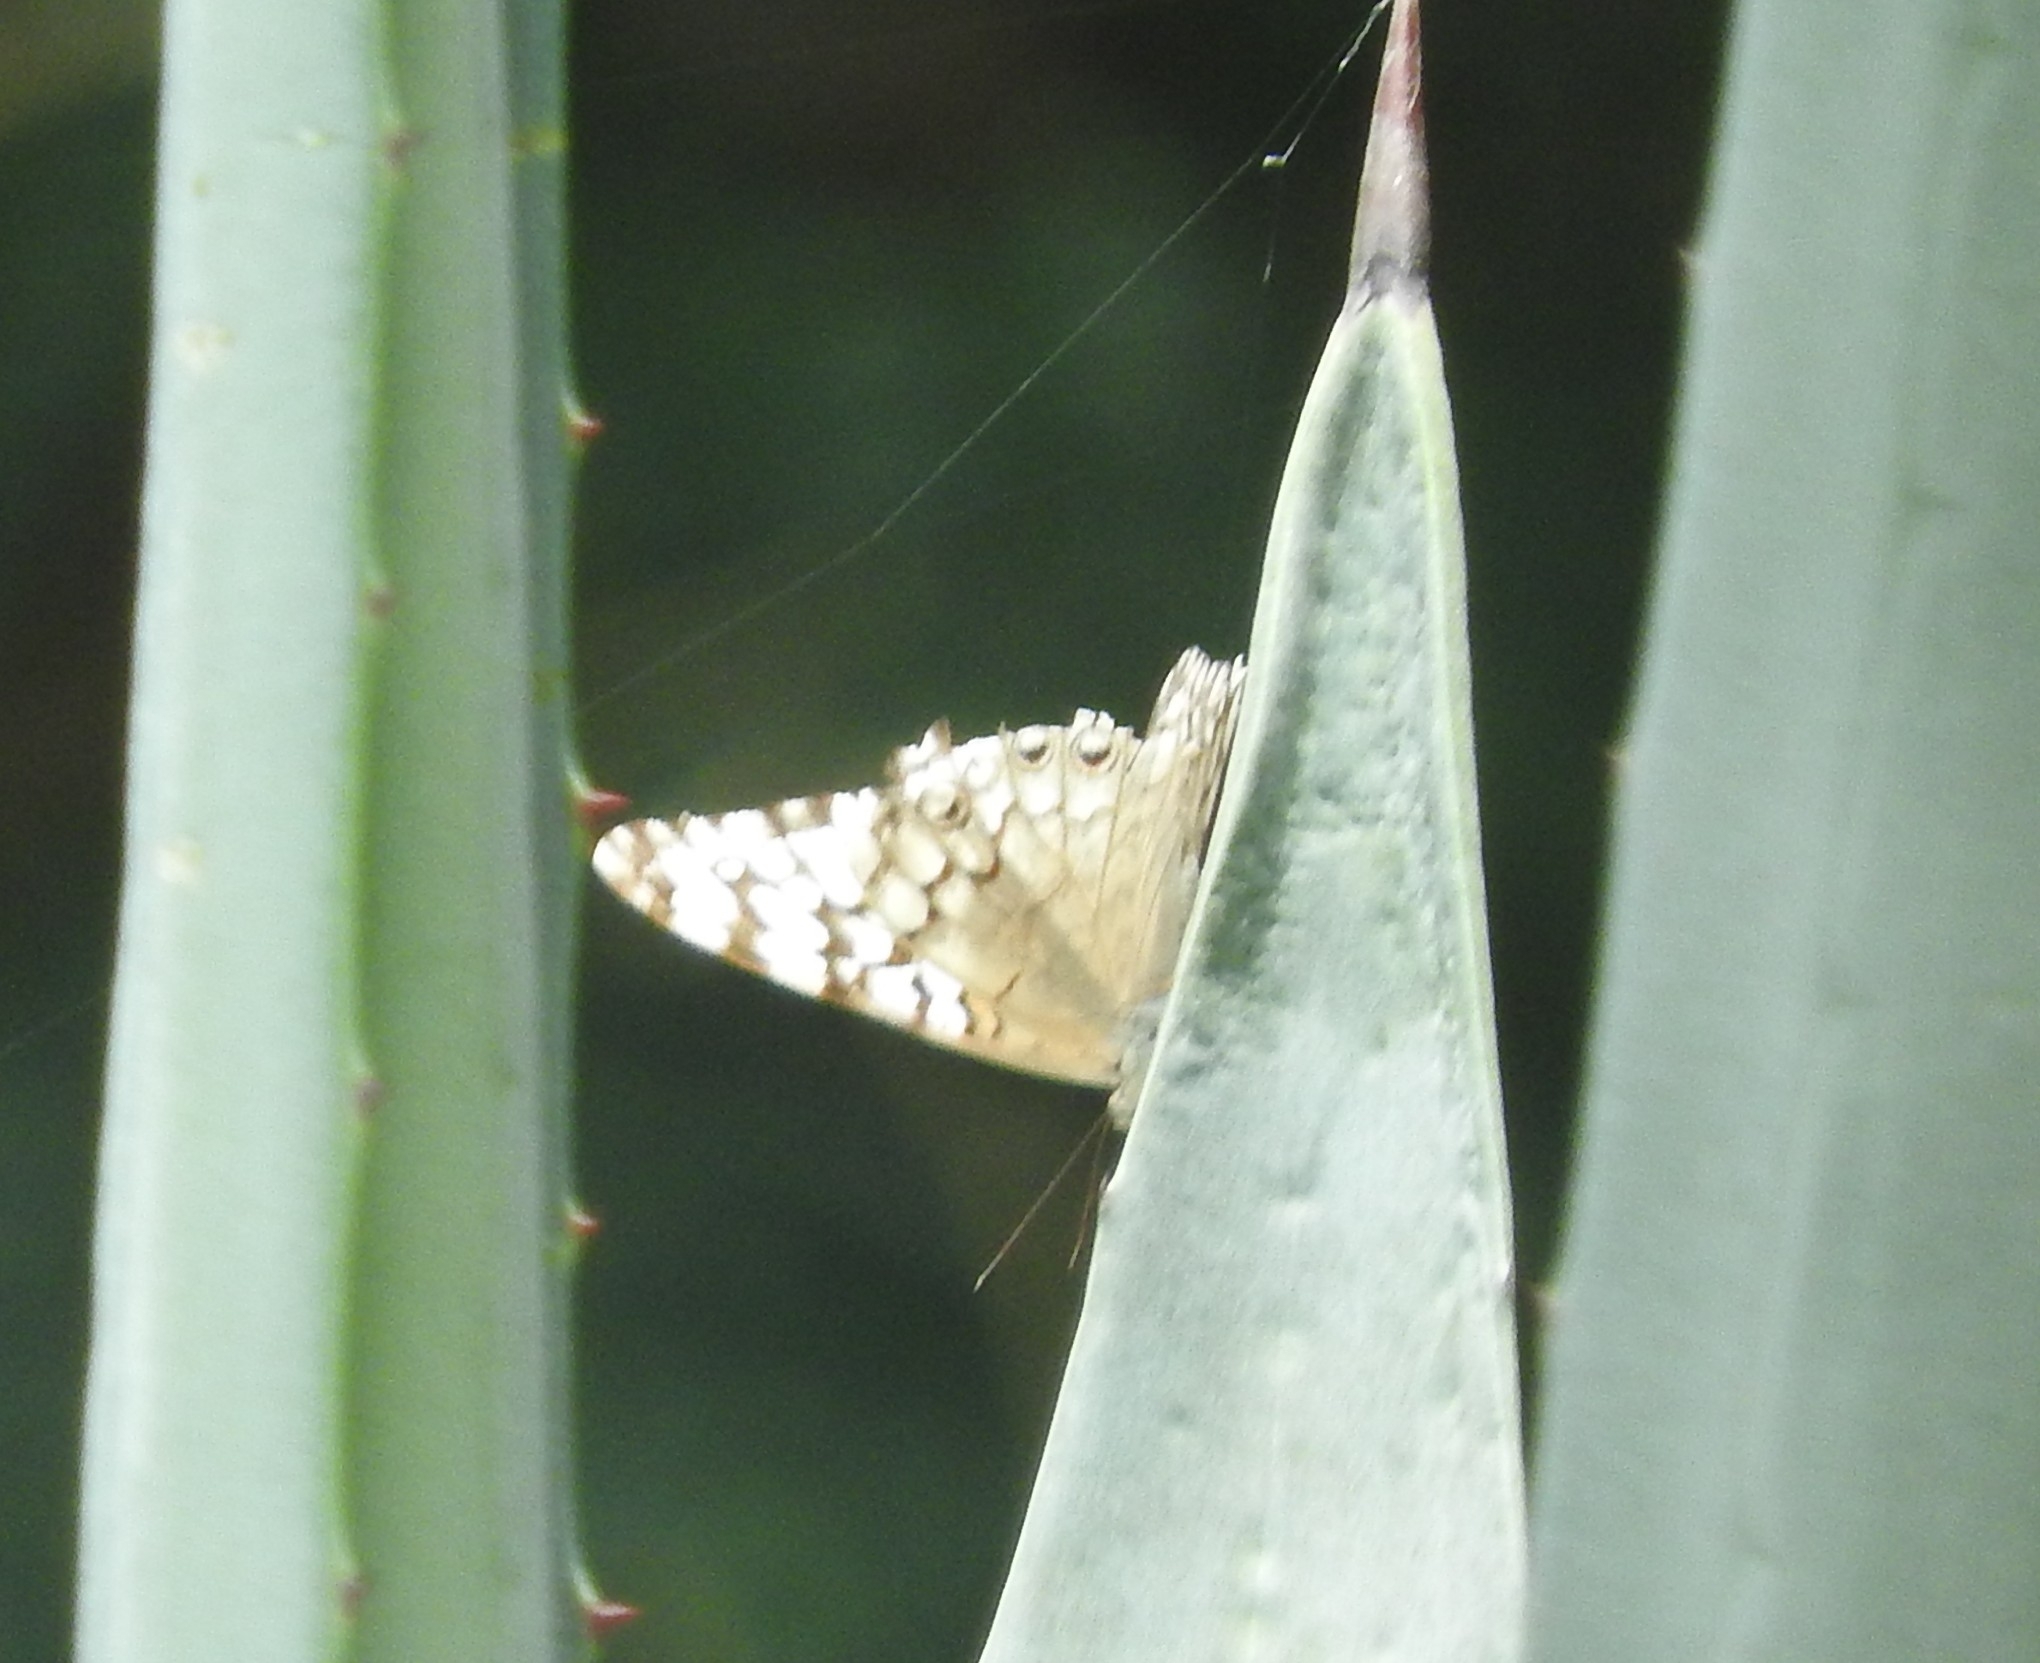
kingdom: Animalia
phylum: Arthropoda
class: Insecta
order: Lepidoptera
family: Nymphalidae
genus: Hamadryas
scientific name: Hamadryas februa
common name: Gray cracker
